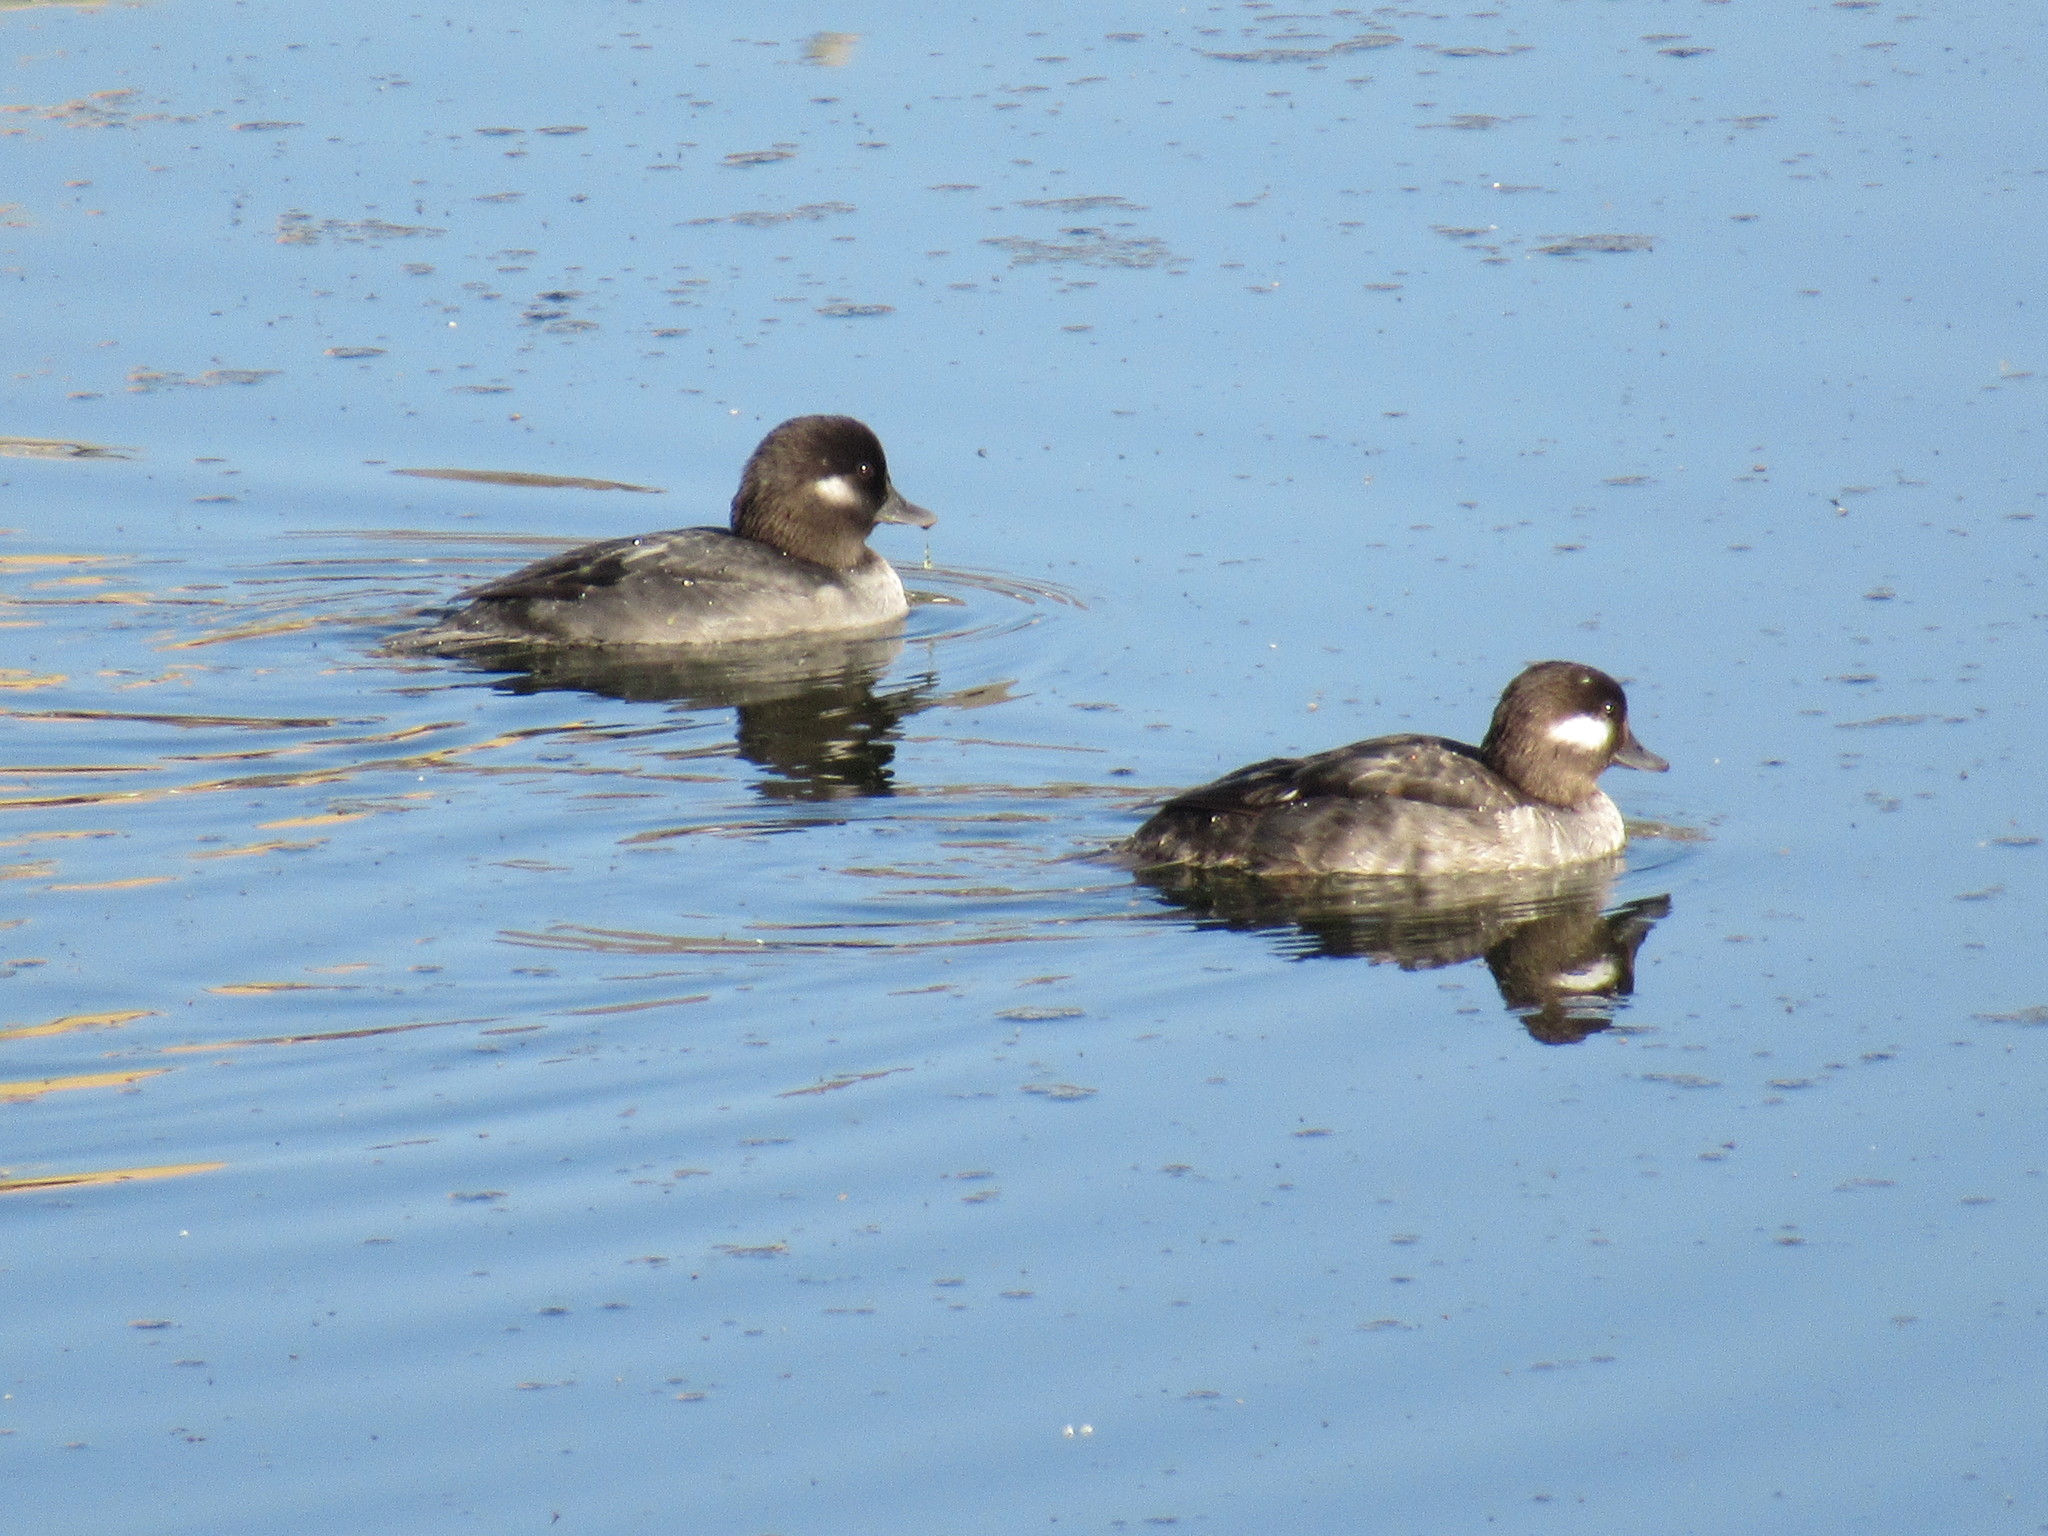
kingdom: Animalia
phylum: Chordata
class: Aves
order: Anseriformes
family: Anatidae
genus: Bucephala
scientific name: Bucephala albeola
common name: Bufflehead
